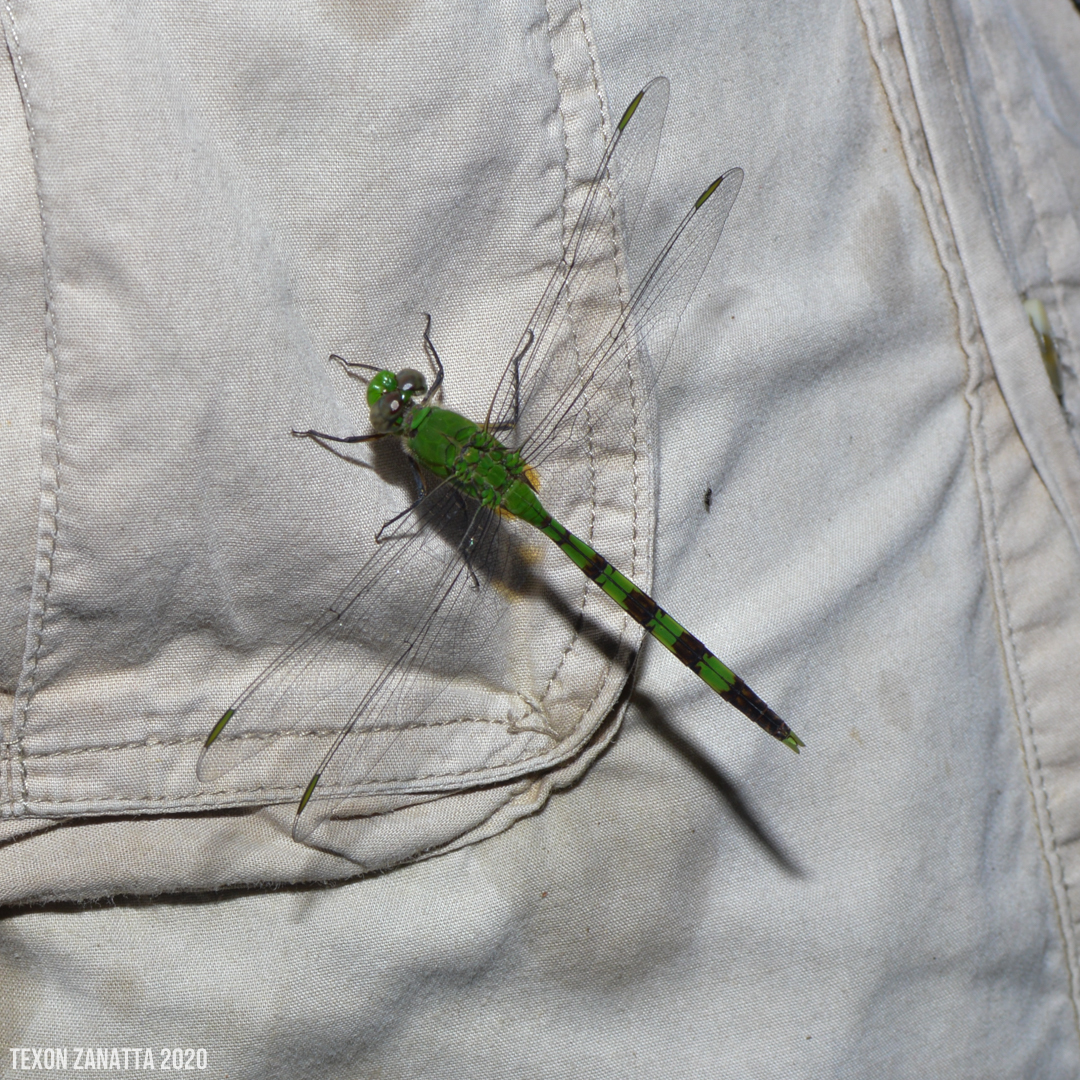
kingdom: Animalia
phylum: Arthropoda
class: Insecta
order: Odonata
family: Libellulidae
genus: Erythemis
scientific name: Erythemis vesiculosa
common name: Great pondhawk
